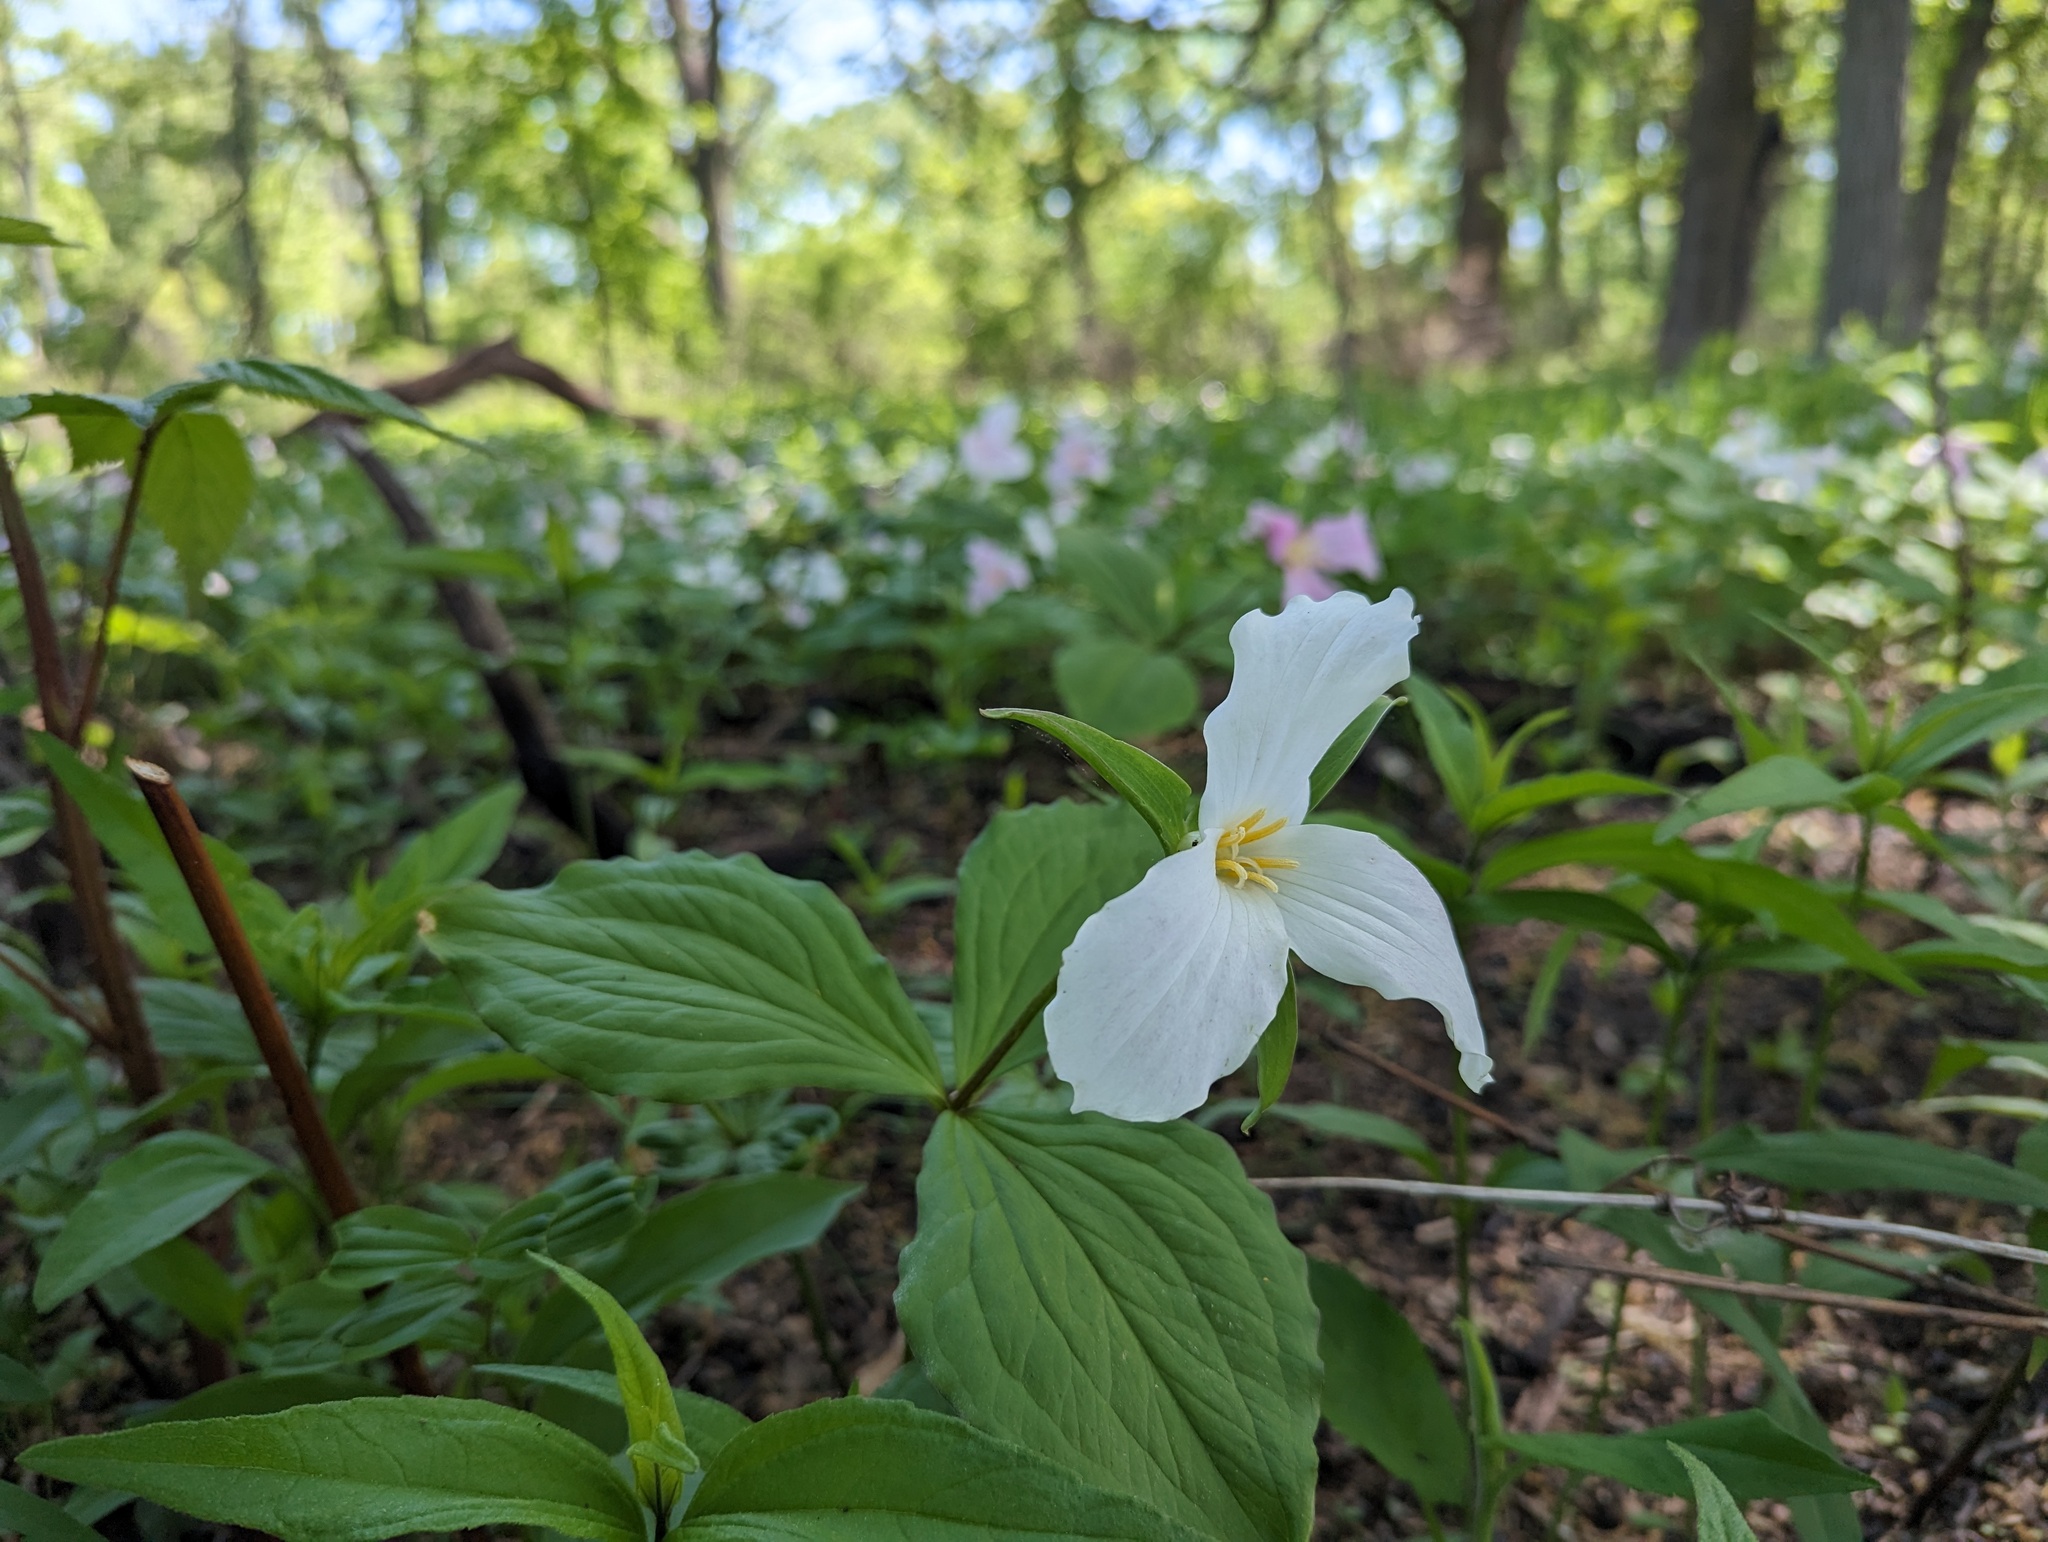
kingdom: Plantae
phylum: Tracheophyta
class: Liliopsida
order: Liliales
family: Melanthiaceae
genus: Trillium
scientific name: Trillium grandiflorum
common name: Great white trillium
